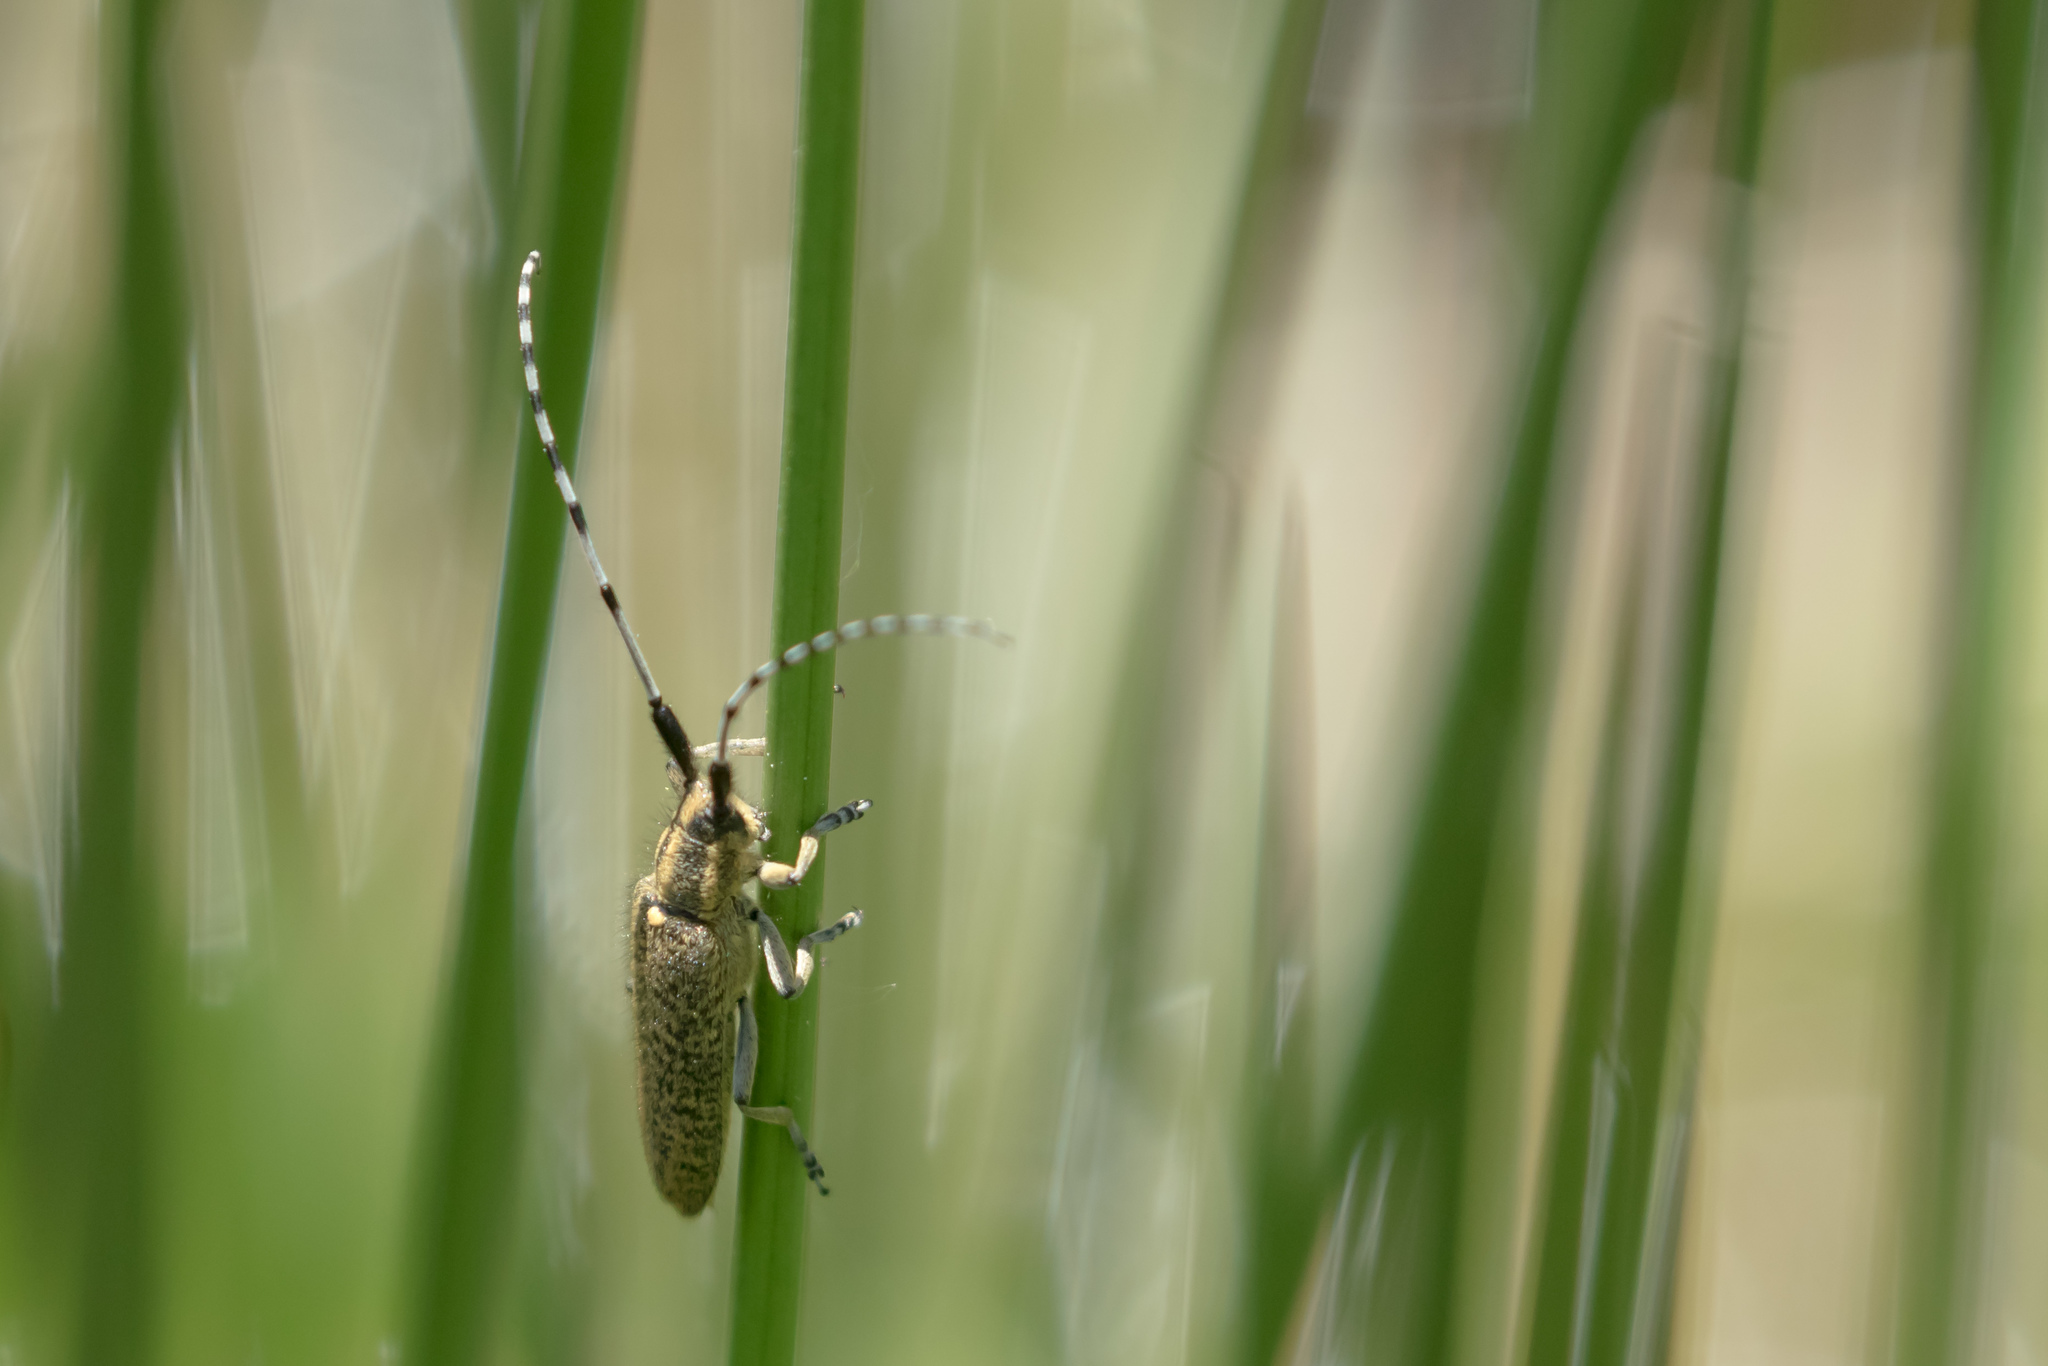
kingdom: Animalia
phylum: Arthropoda
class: Insecta
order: Coleoptera
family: Cerambycidae
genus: Agapanthia
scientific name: Agapanthia villosoviridescens
